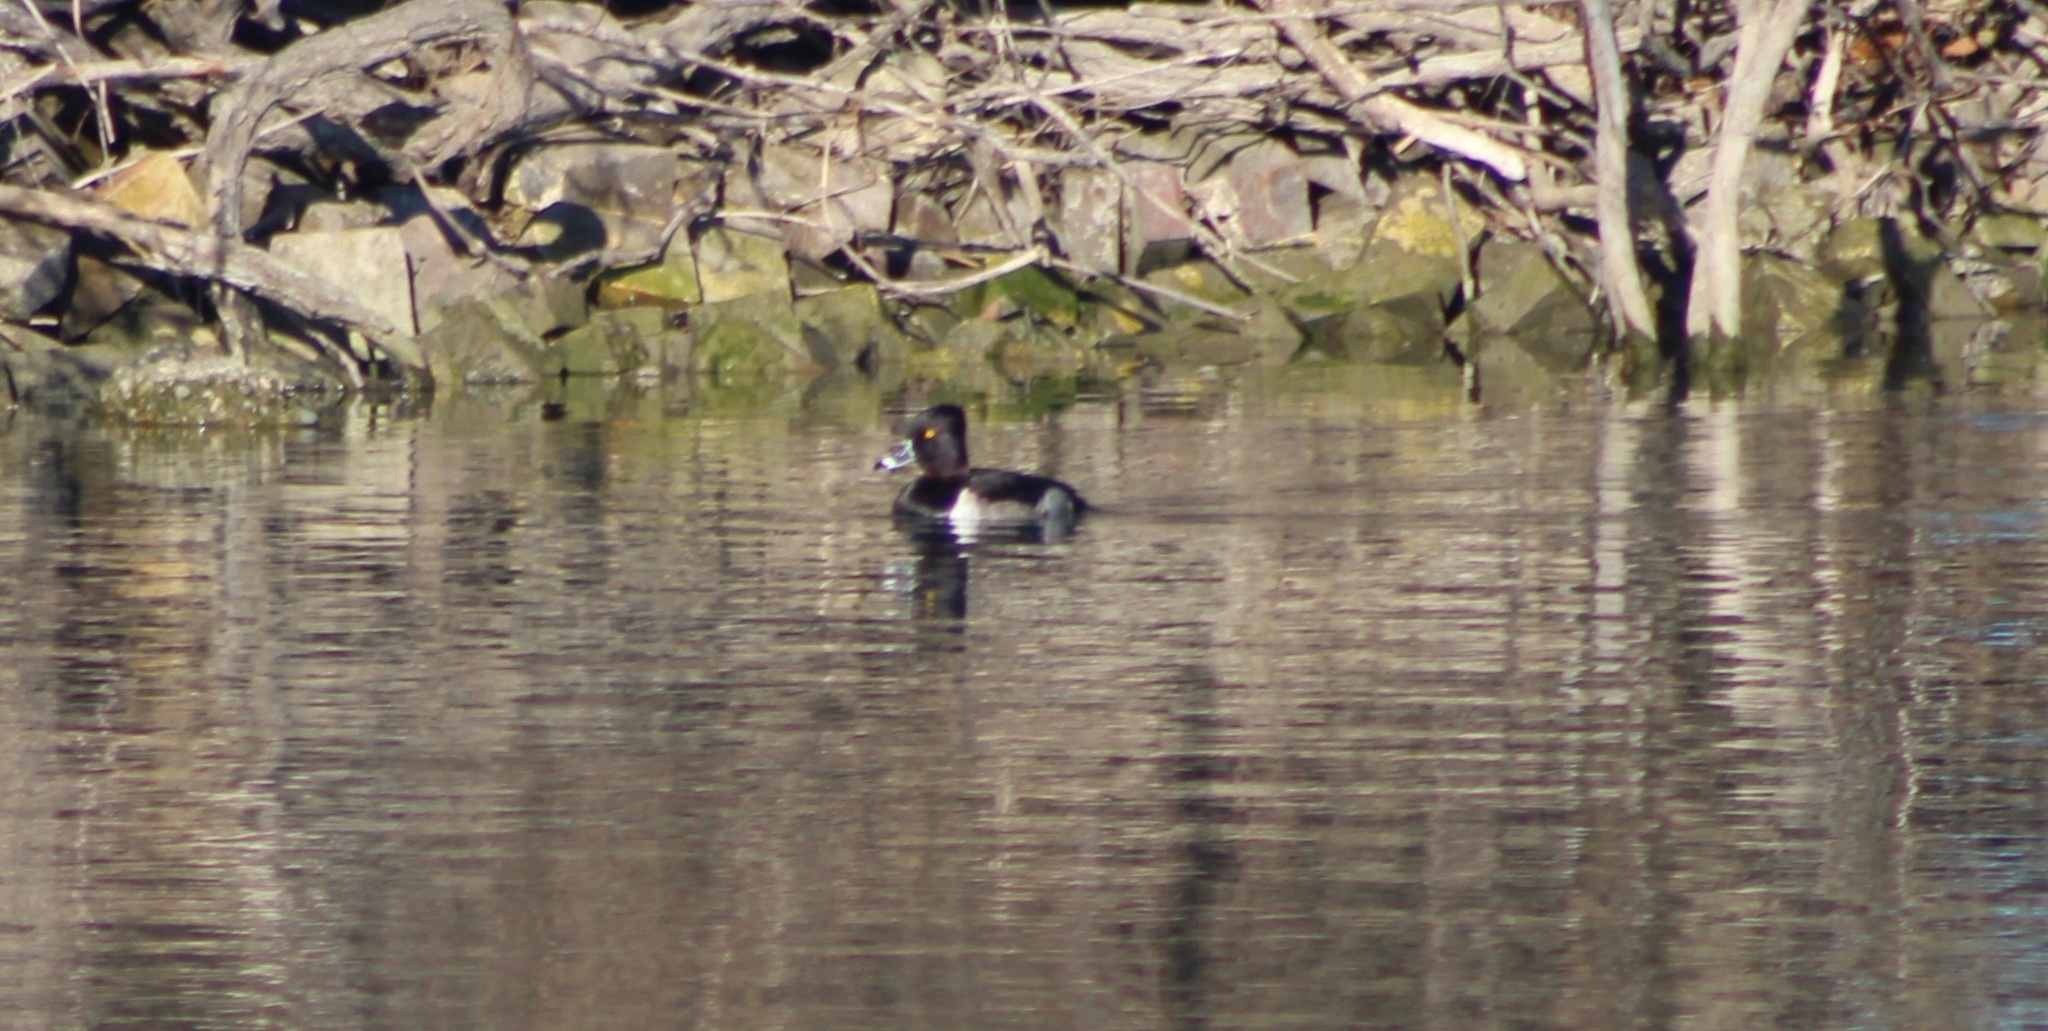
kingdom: Animalia
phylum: Chordata
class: Aves
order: Anseriformes
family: Anatidae
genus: Aythya
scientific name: Aythya collaris
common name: Ring-necked duck
